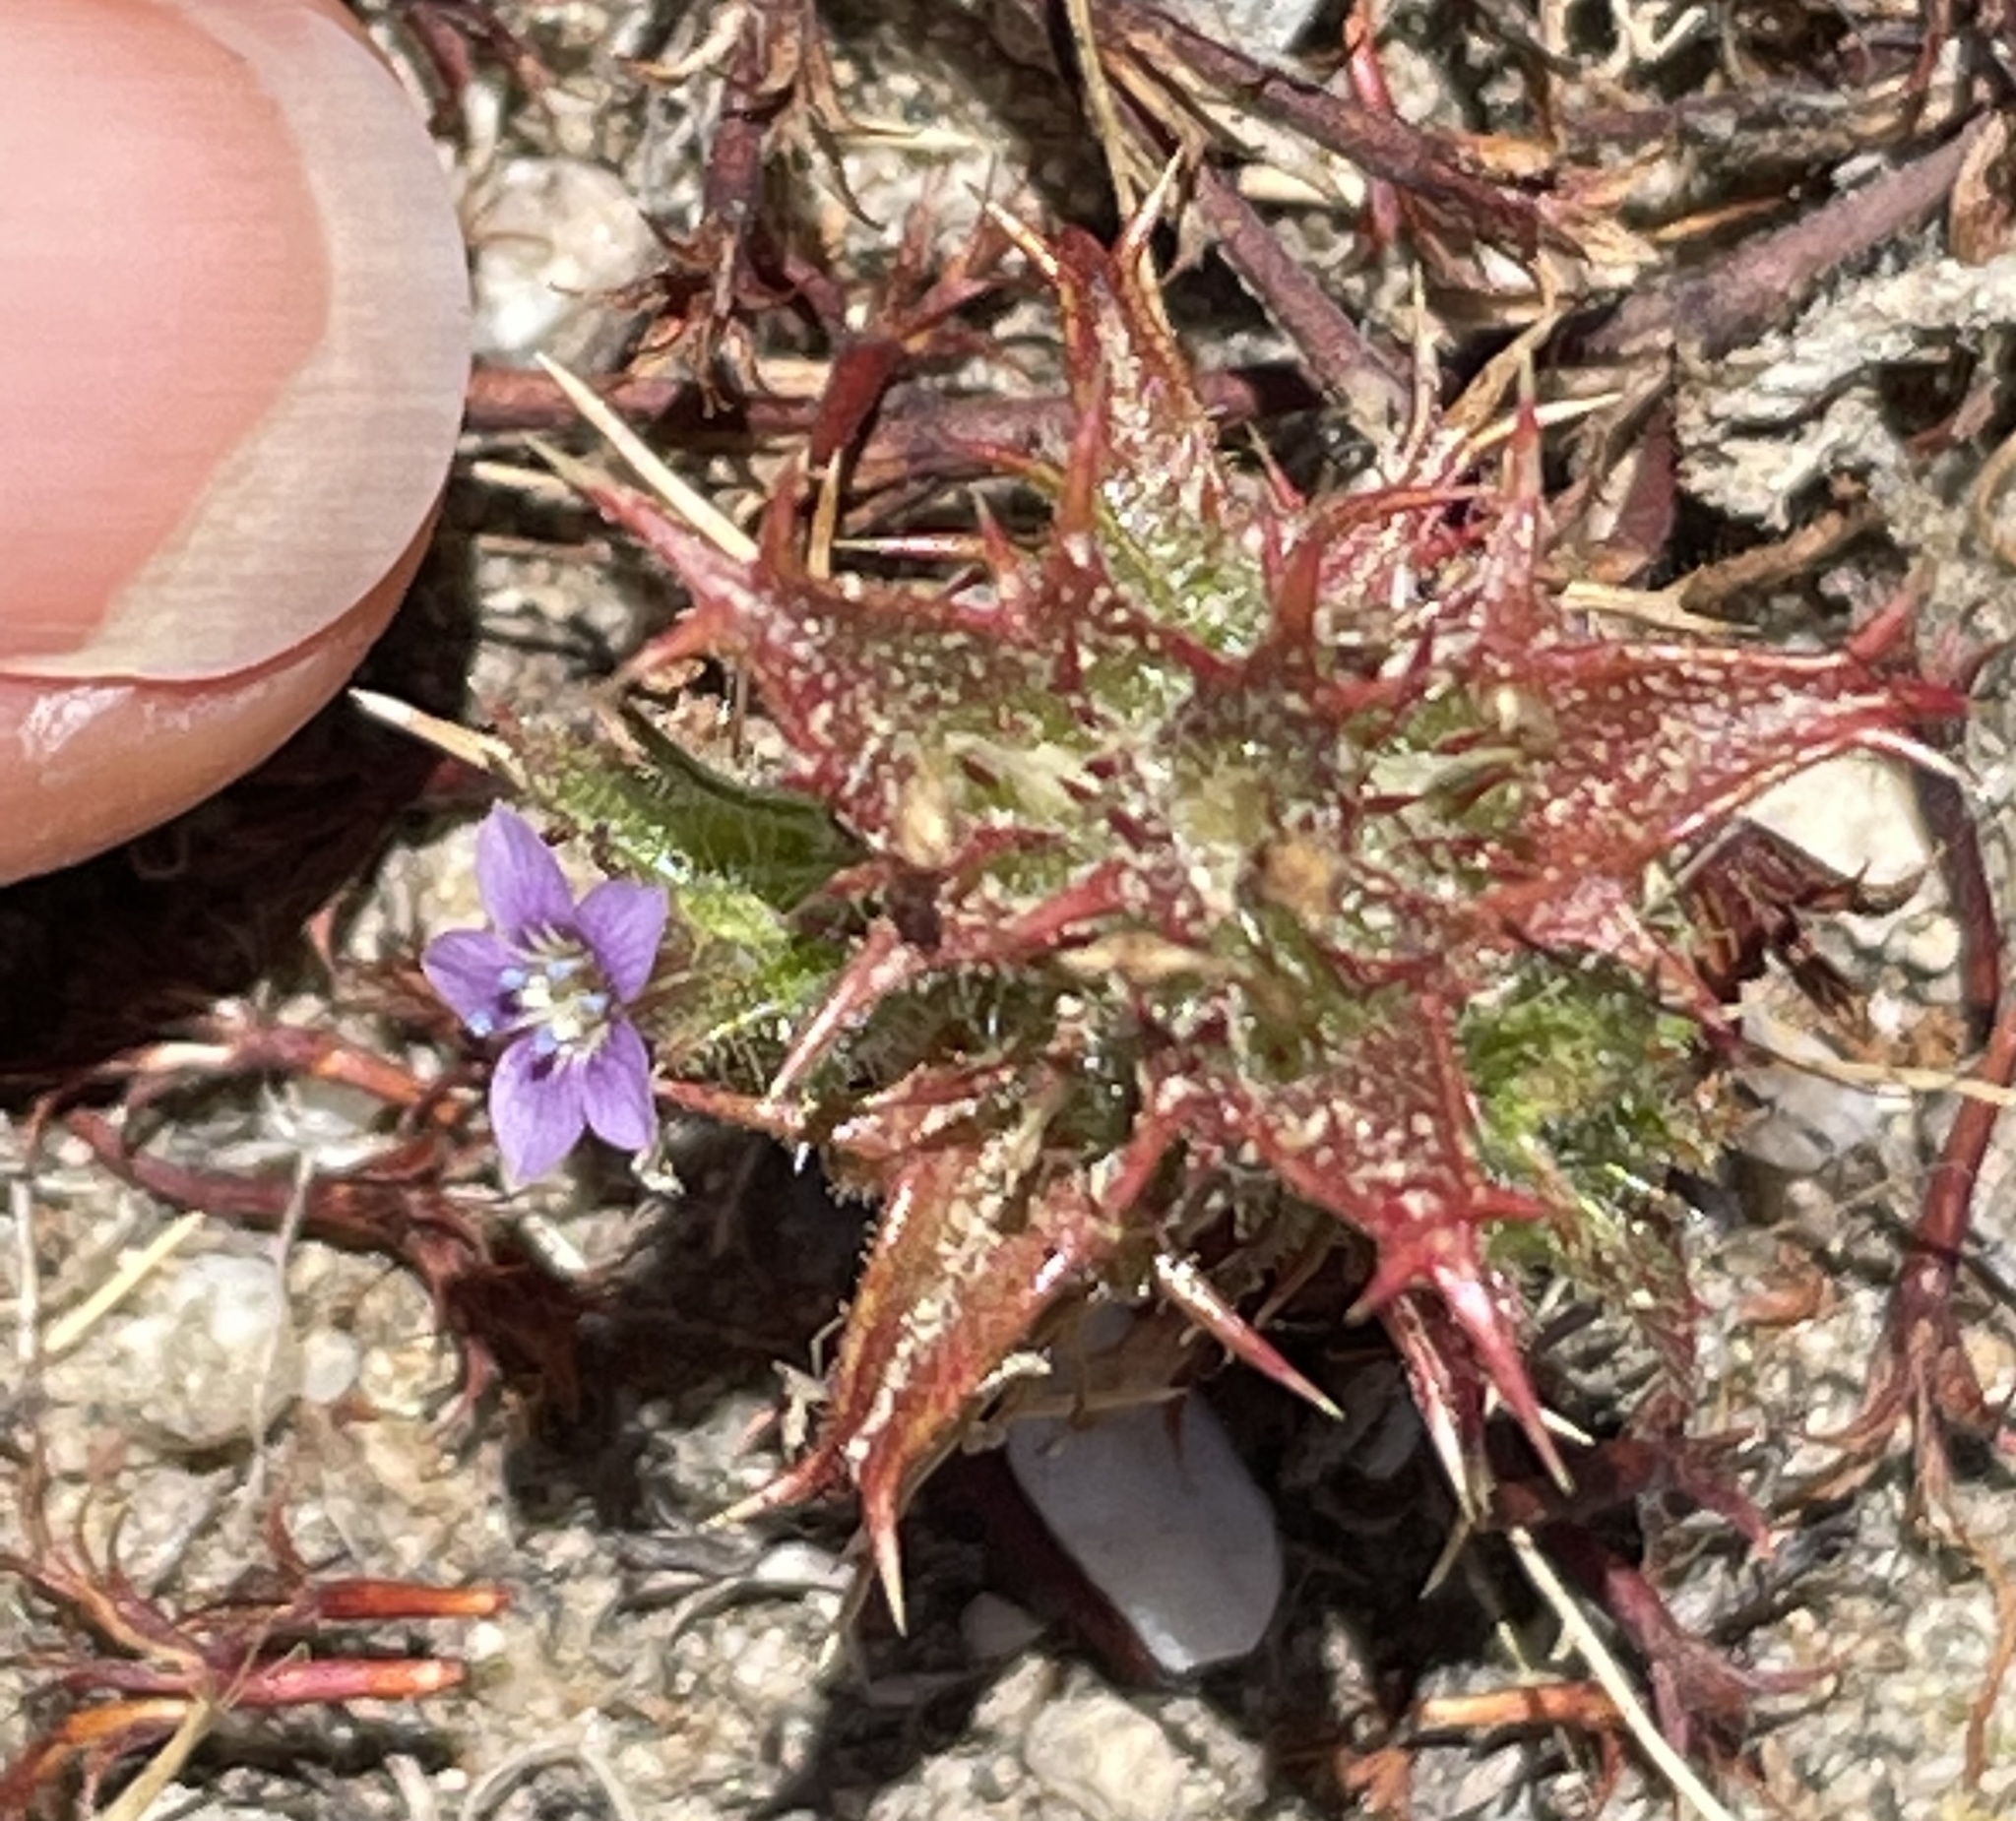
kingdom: Plantae
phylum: Tracheophyta
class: Magnoliopsida
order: Ericales
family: Polemoniaceae
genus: Navarretia
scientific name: Navarretia atractyloides
